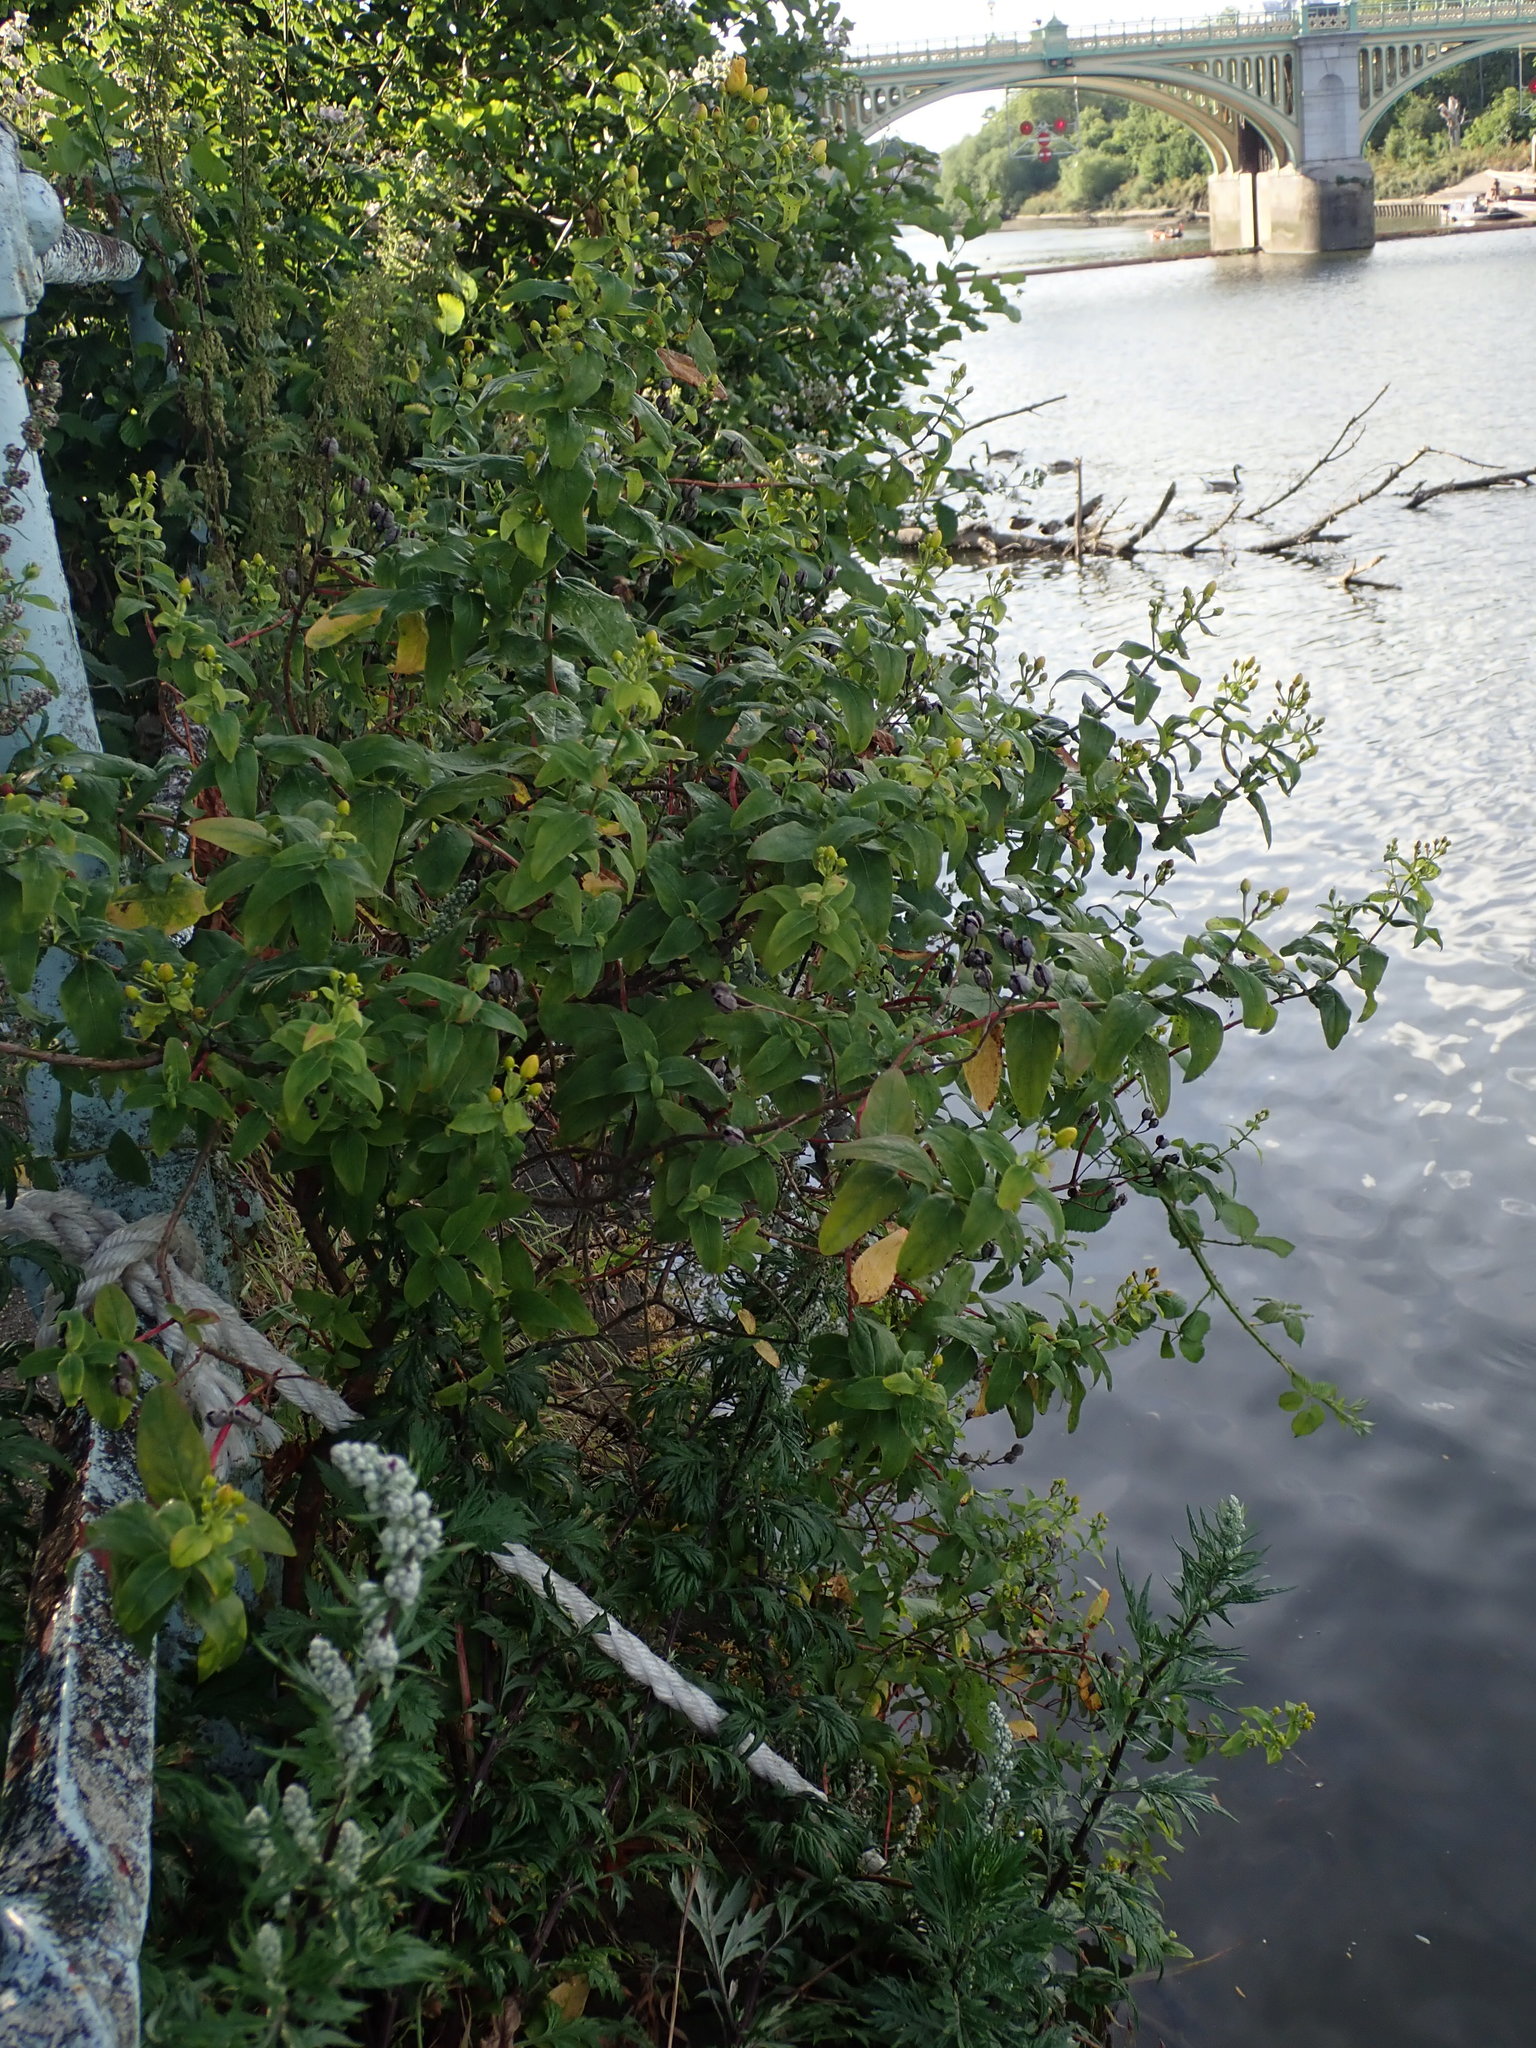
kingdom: Plantae
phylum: Tracheophyta
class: Magnoliopsida
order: Malpighiales
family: Hypericaceae
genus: Hypericum
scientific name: Hypericum hircinum
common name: Stinking tutsan
